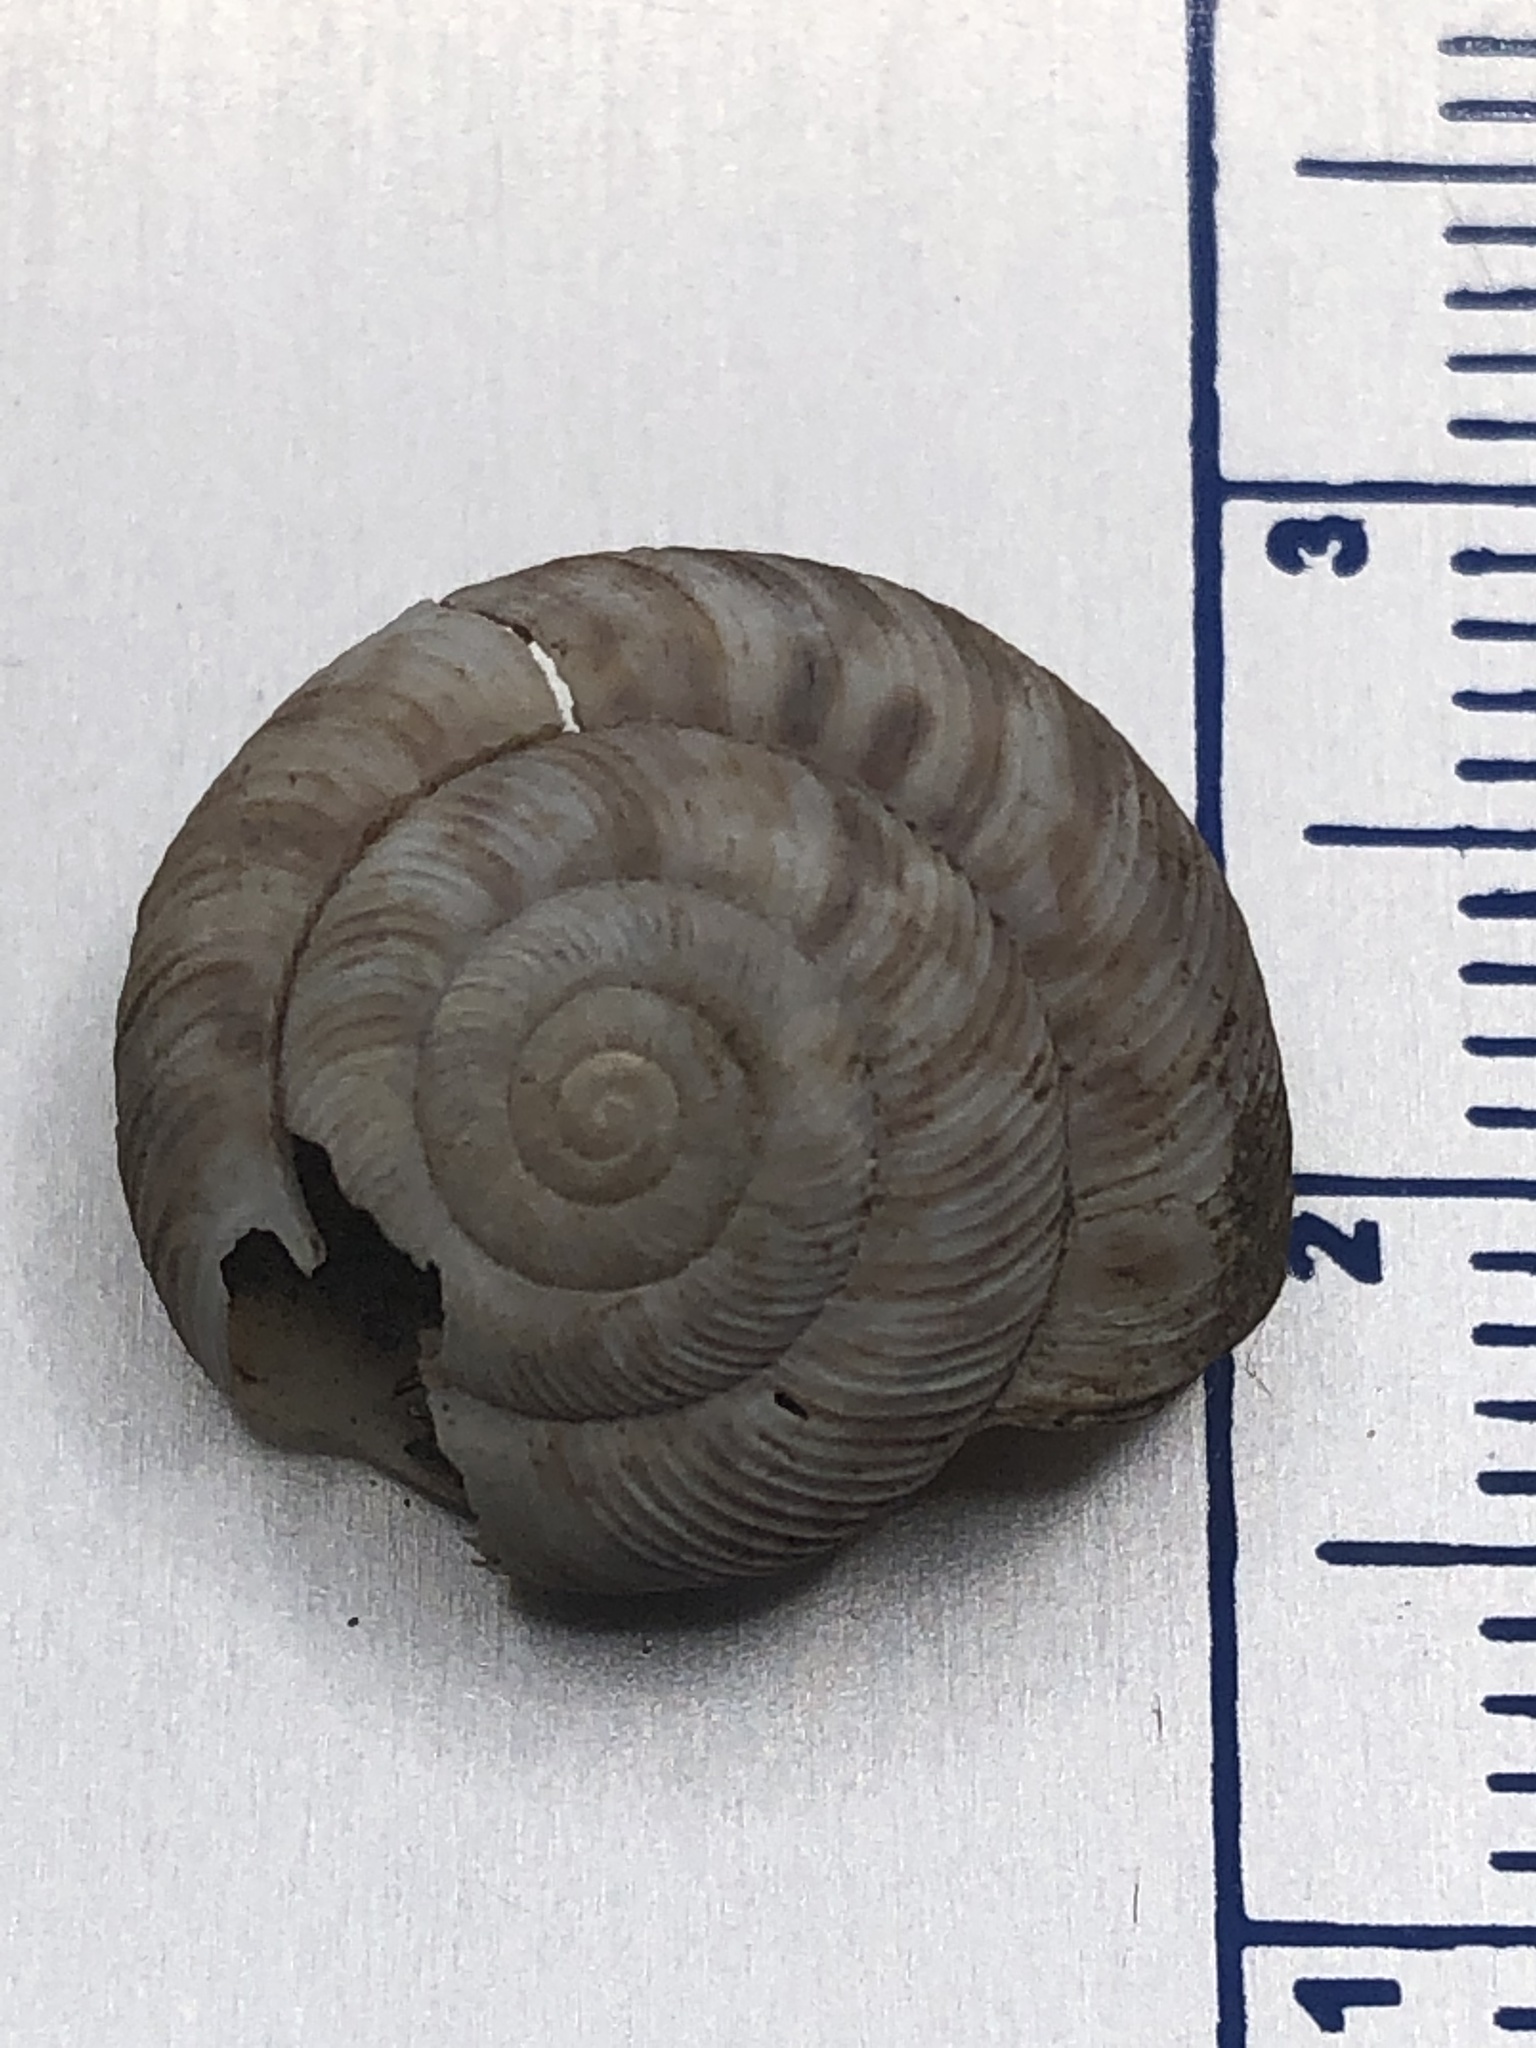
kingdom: Animalia
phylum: Mollusca
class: Gastropoda
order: Stylommatophora
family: Discidae
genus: Anguispira
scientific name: Anguispira alternata
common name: Flamed tigersnail
